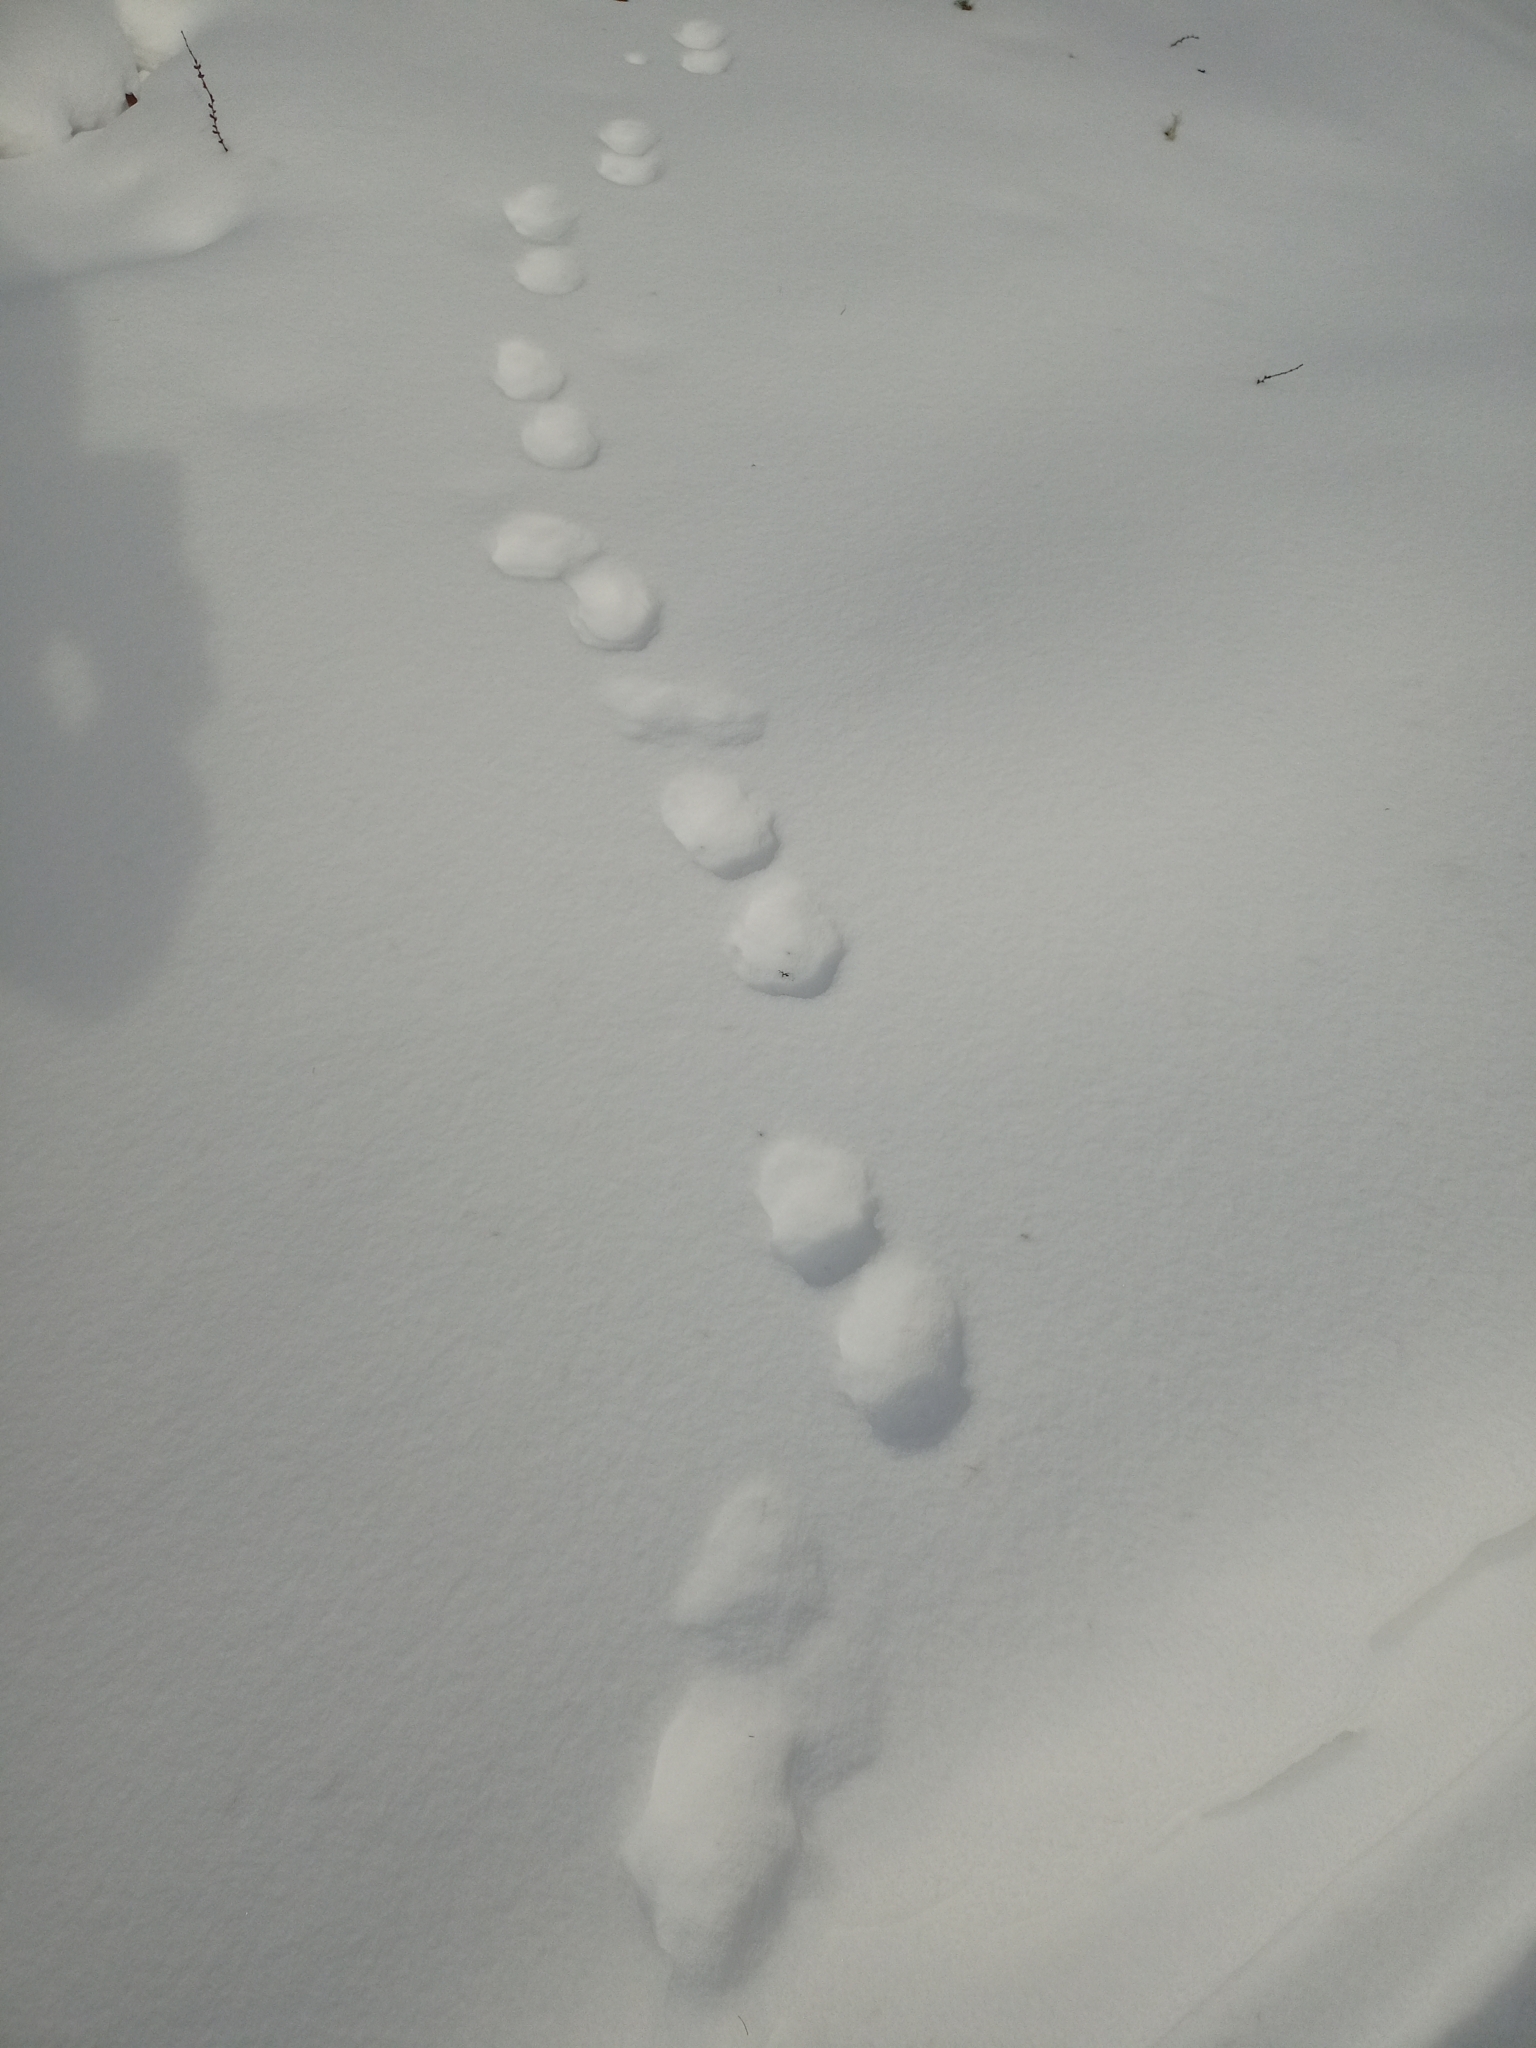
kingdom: Animalia
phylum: Chordata
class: Mammalia
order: Carnivora
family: Mustelidae
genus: Martes
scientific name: Martes zibellina
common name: Sable
